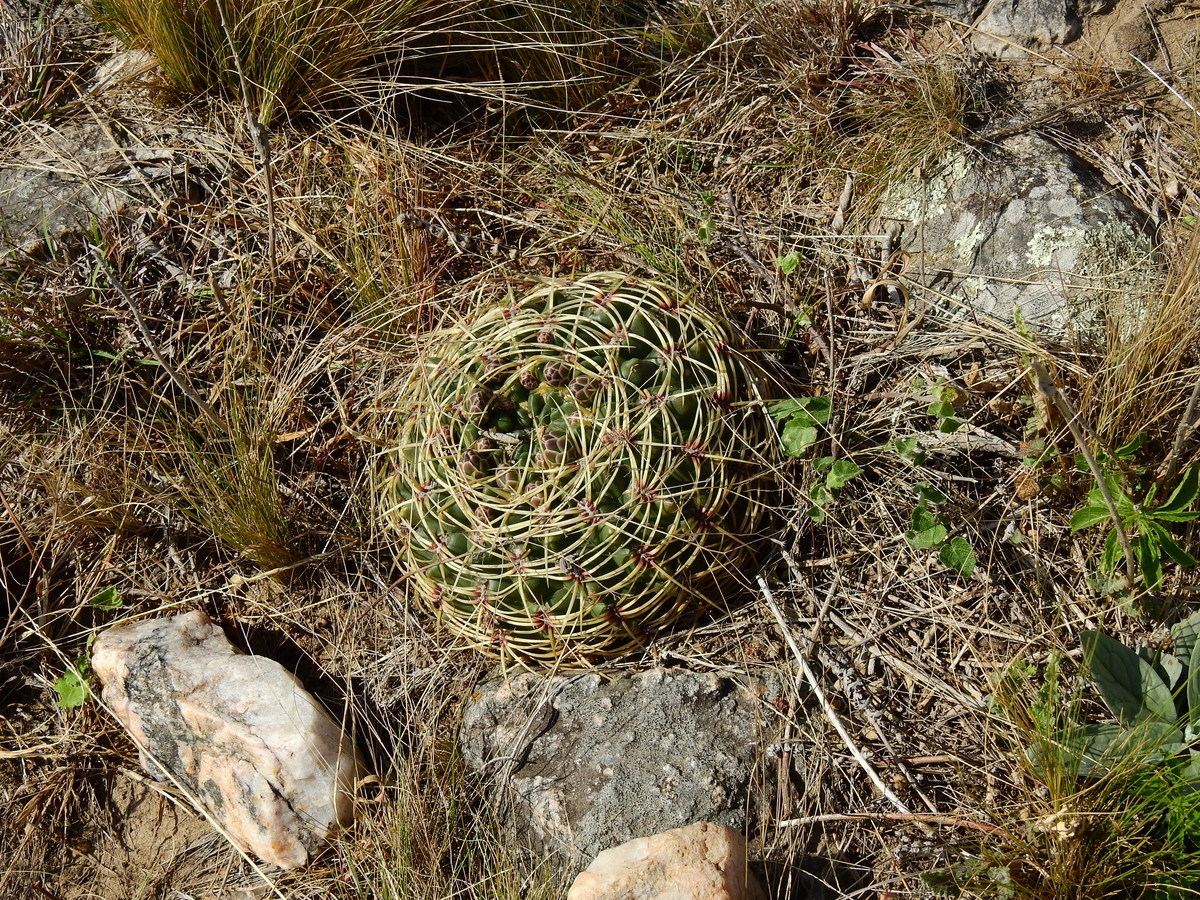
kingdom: Plantae
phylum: Tracheophyta
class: Magnoliopsida
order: Caryophyllales
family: Cactaceae
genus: Gymnocalycium
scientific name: Gymnocalycium monvillei
